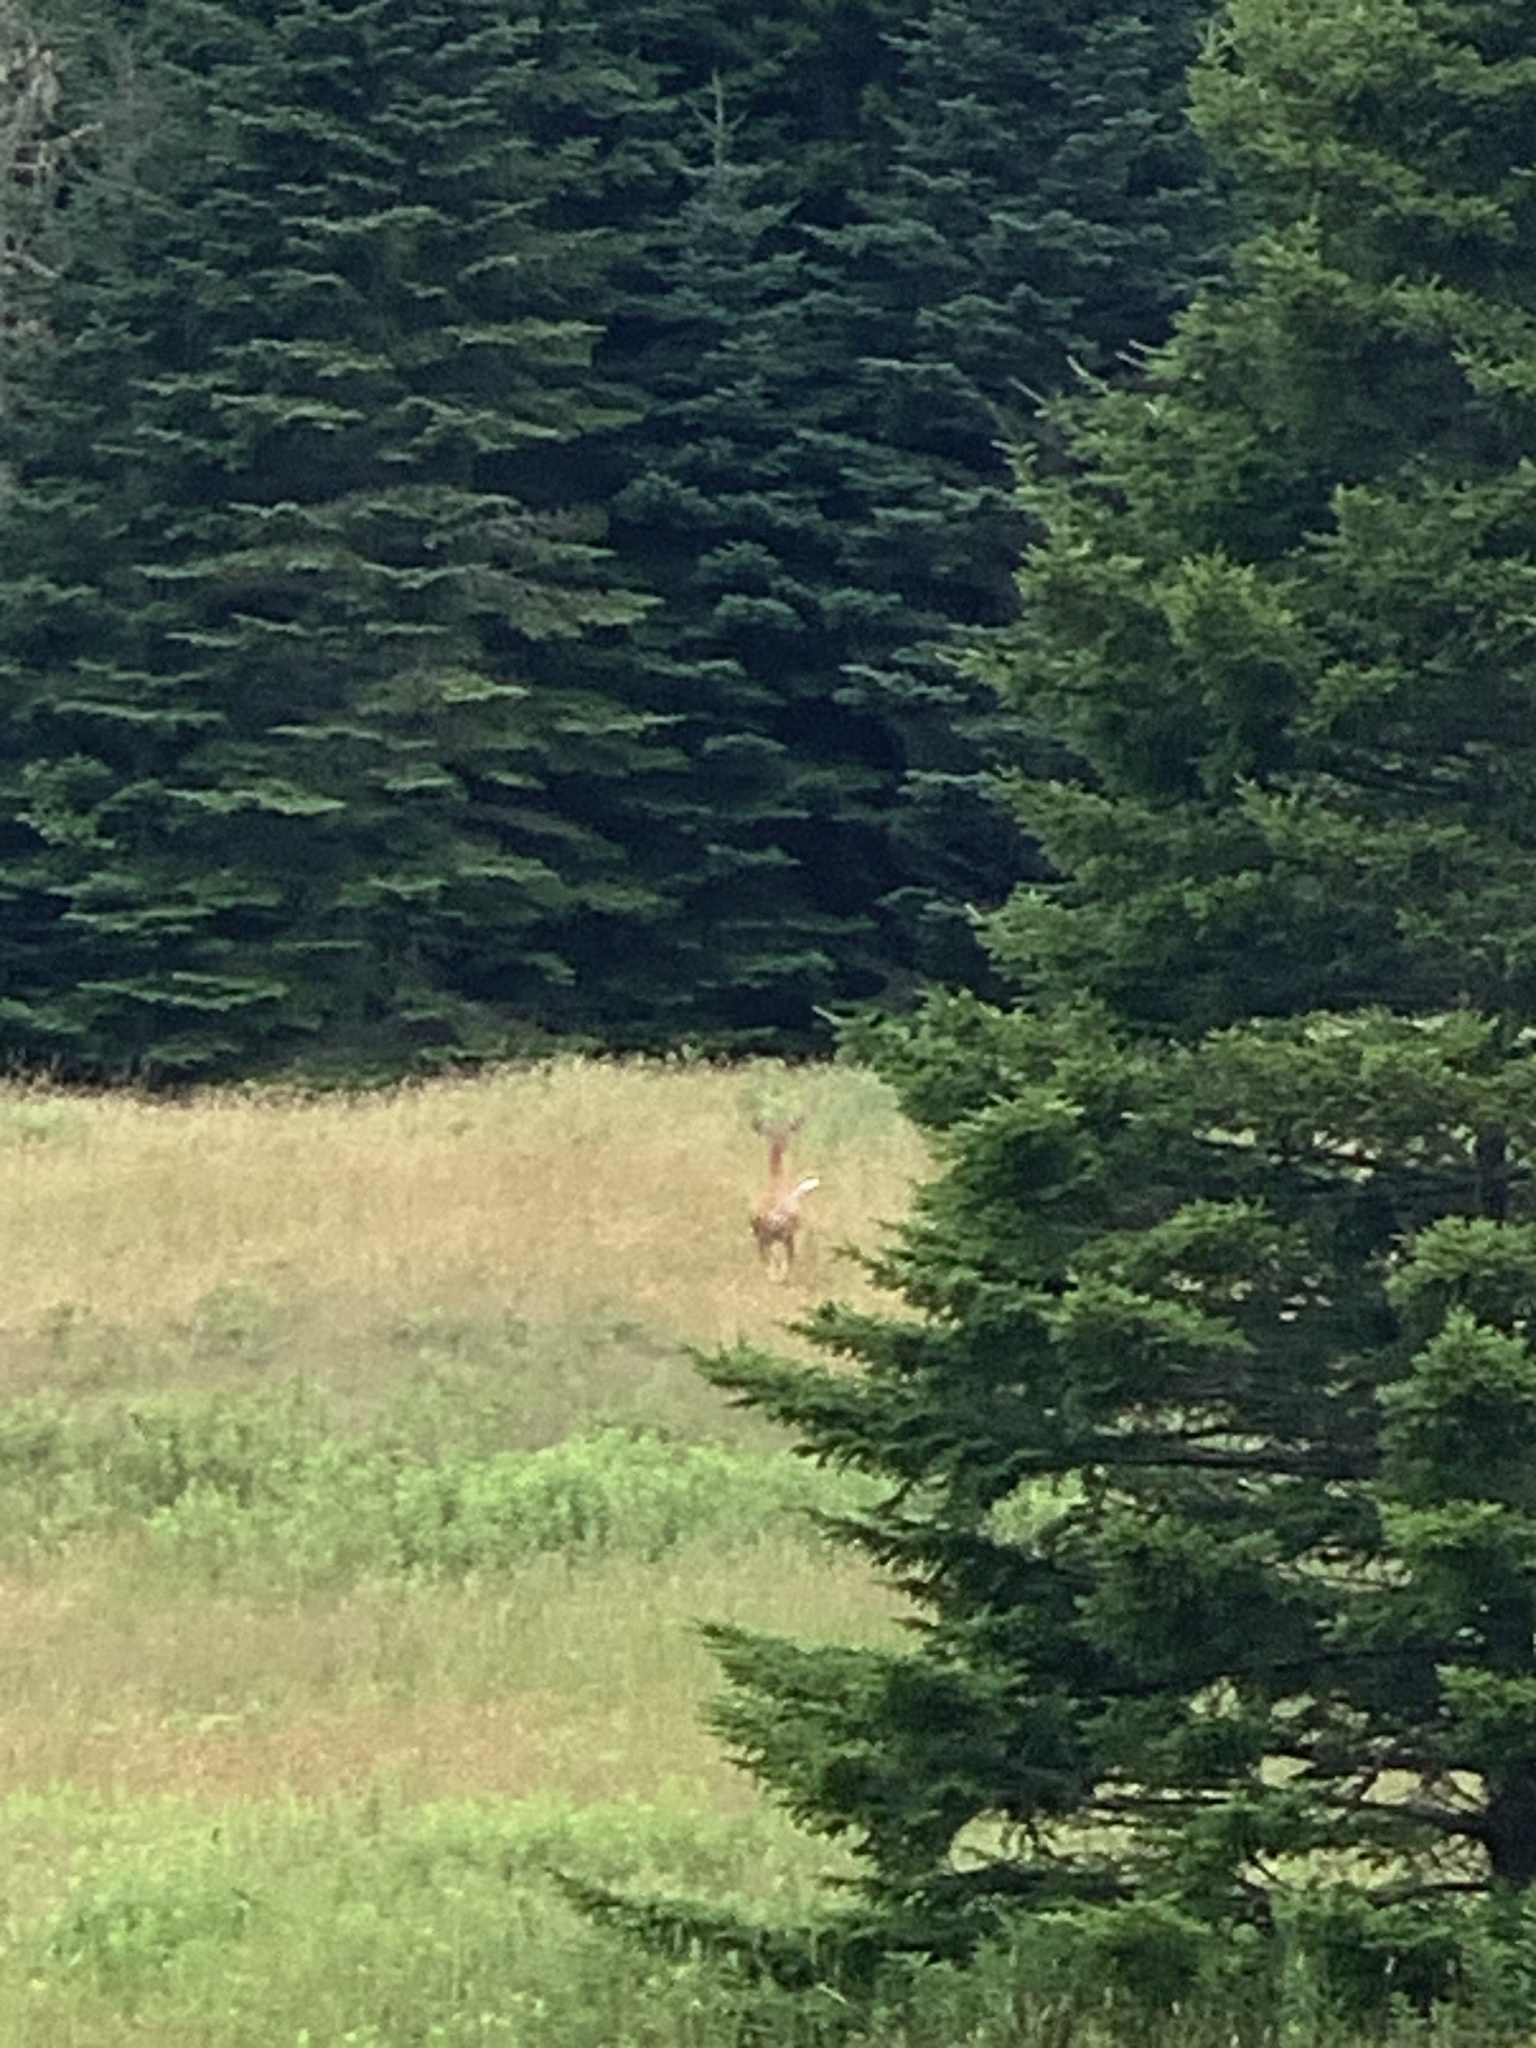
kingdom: Animalia
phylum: Chordata
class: Mammalia
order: Artiodactyla
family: Cervidae
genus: Odocoileus
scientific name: Odocoileus virginianus
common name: White-tailed deer
